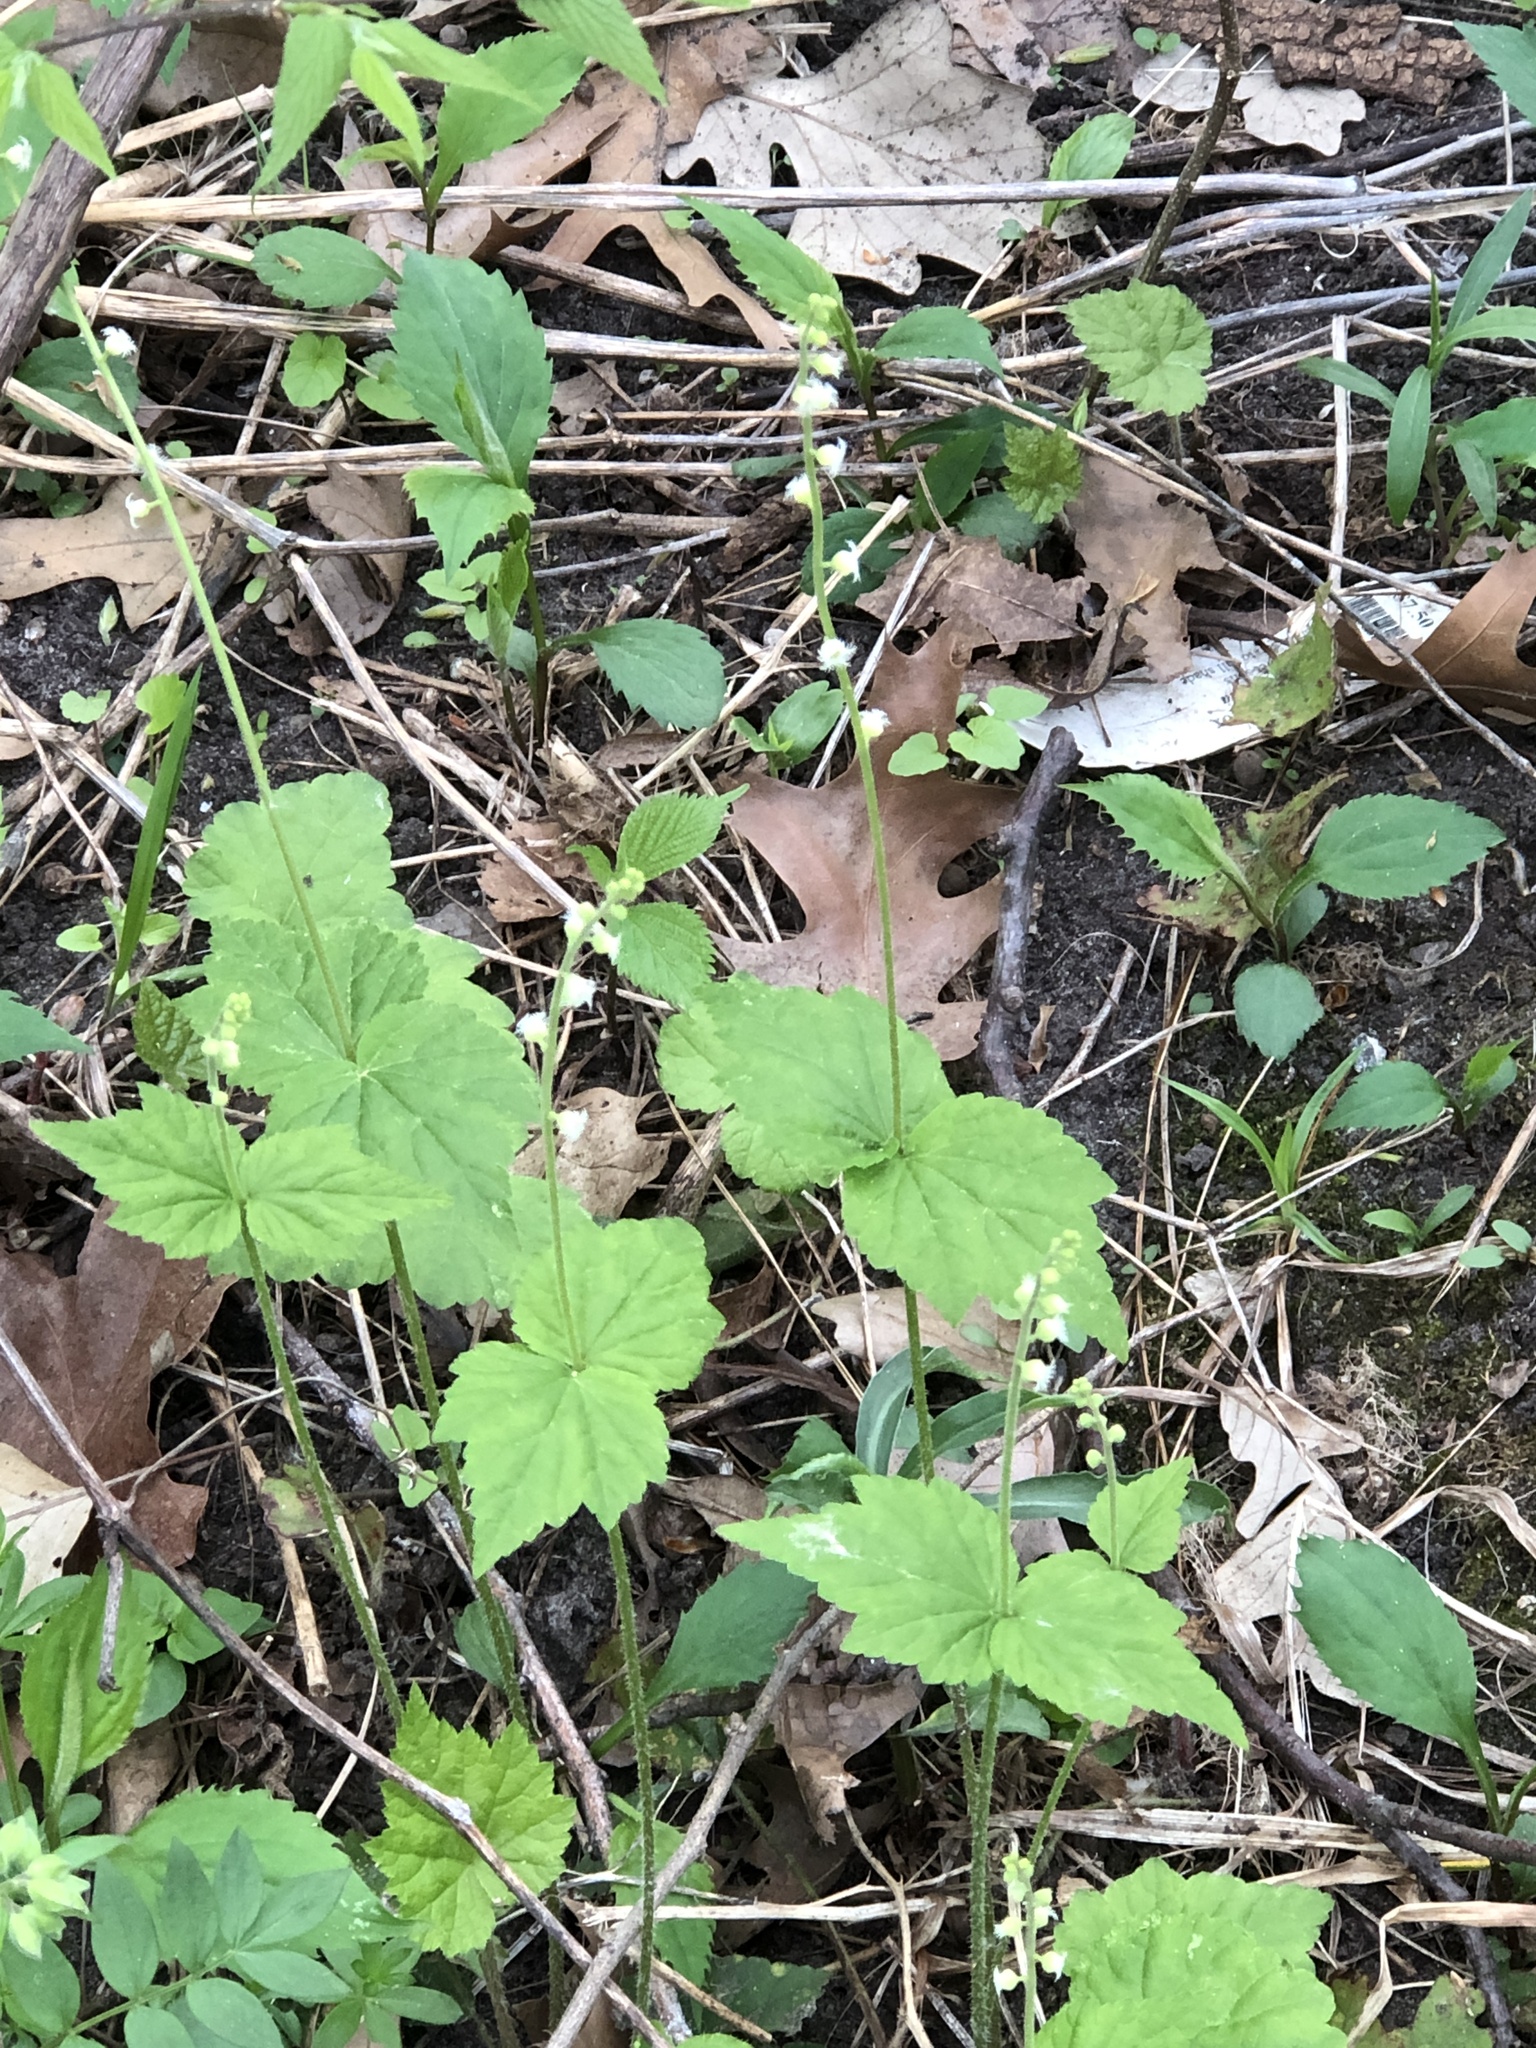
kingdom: Plantae
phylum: Tracheophyta
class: Magnoliopsida
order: Saxifragales
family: Saxifragaceae
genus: Mitella
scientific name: Mitella diphylla
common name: Coolwort
